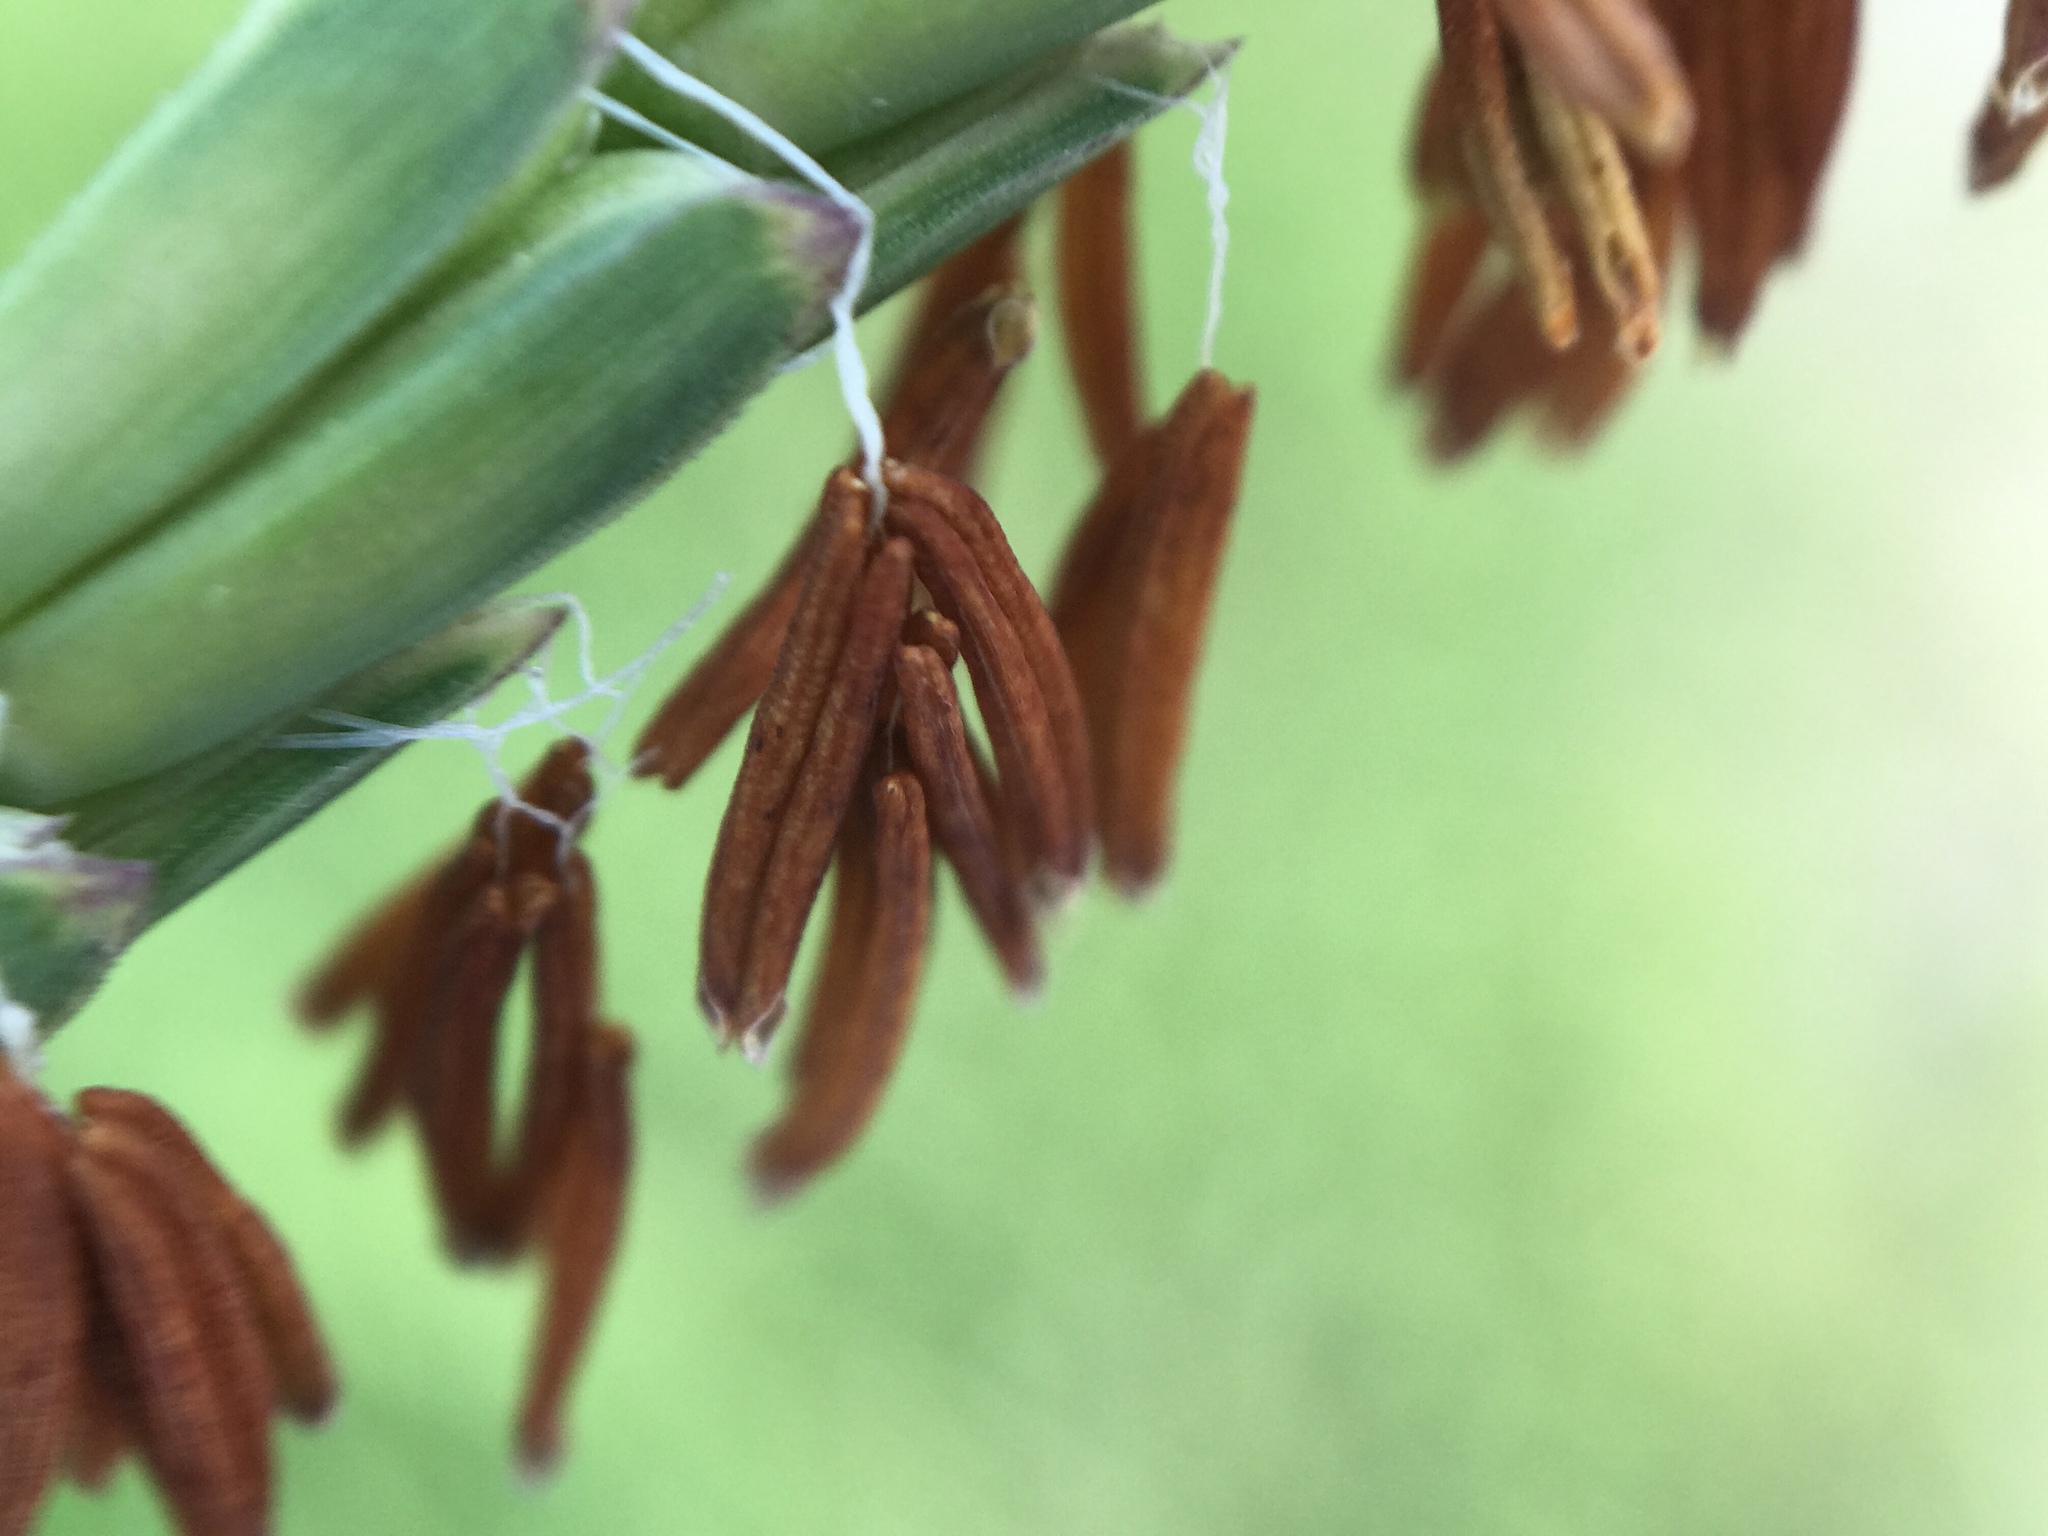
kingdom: Plantae
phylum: Tracheophyta
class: Liliopsida
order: Poales
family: Poaceae
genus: Tripsacum
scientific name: Tripsacum dactyloides
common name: Buffalo-grass
